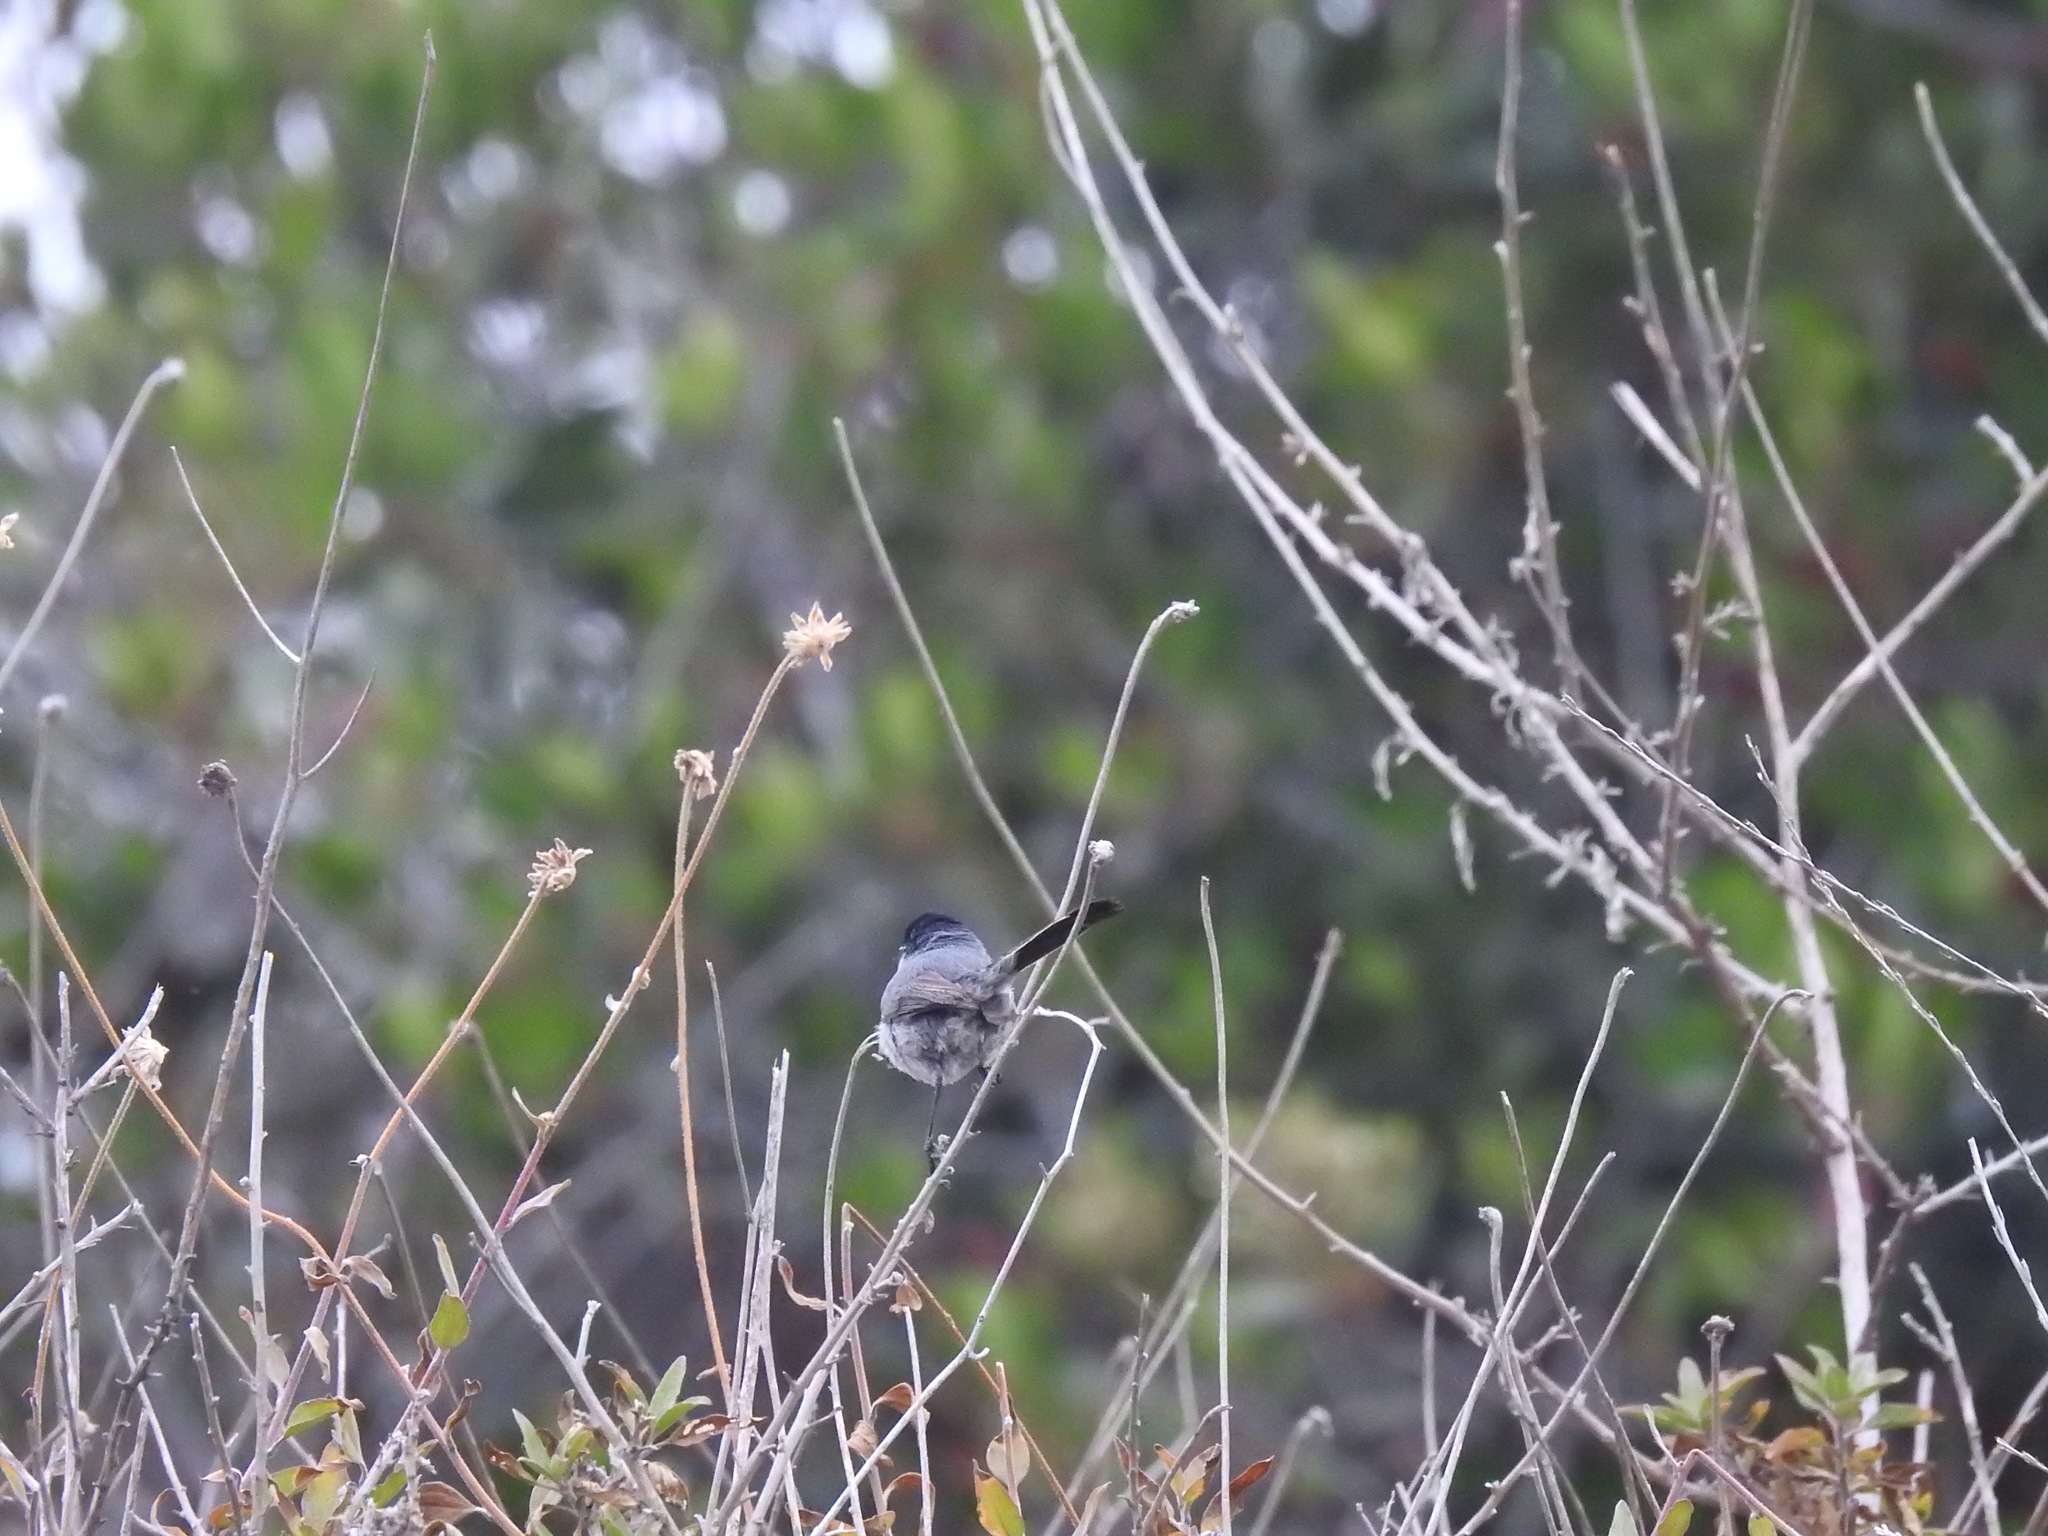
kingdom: Animalia
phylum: Chordata
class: Aves
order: Passeriformes
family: Polioptilidae
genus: Polioptila
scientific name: Polioptila californica
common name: California gnatcatcher
